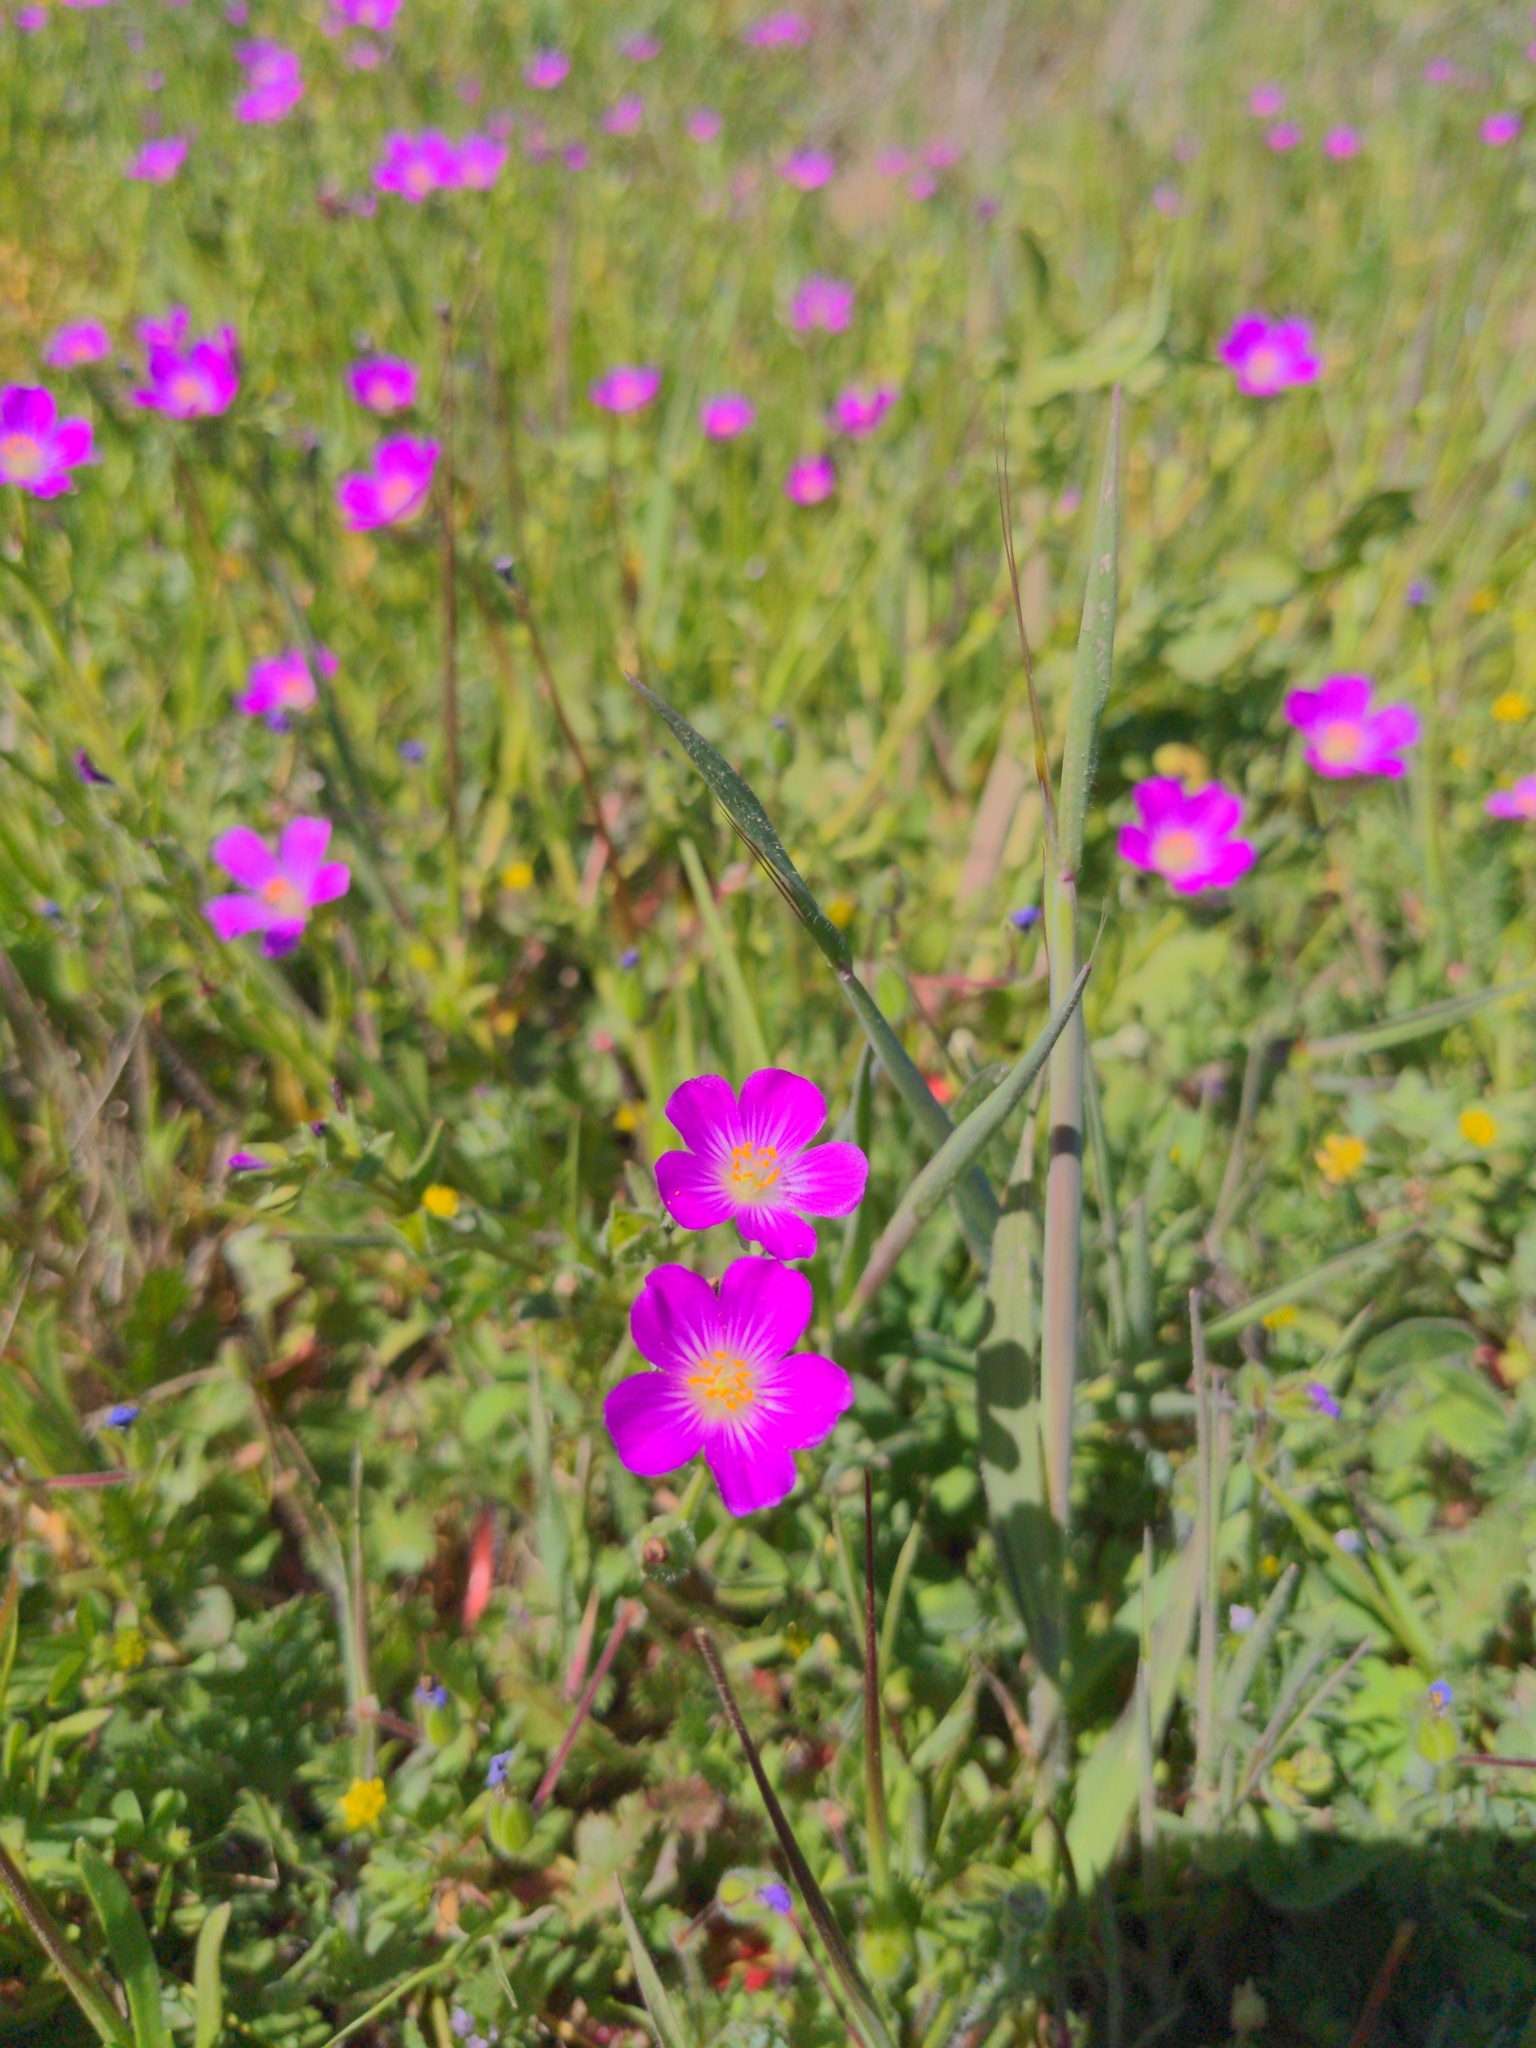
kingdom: Plantae
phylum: Tracheophyta
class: Magnoliopsida
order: Caryophyllales
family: Montiaceae
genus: Calandrinia
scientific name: Calandrinia menziesii
